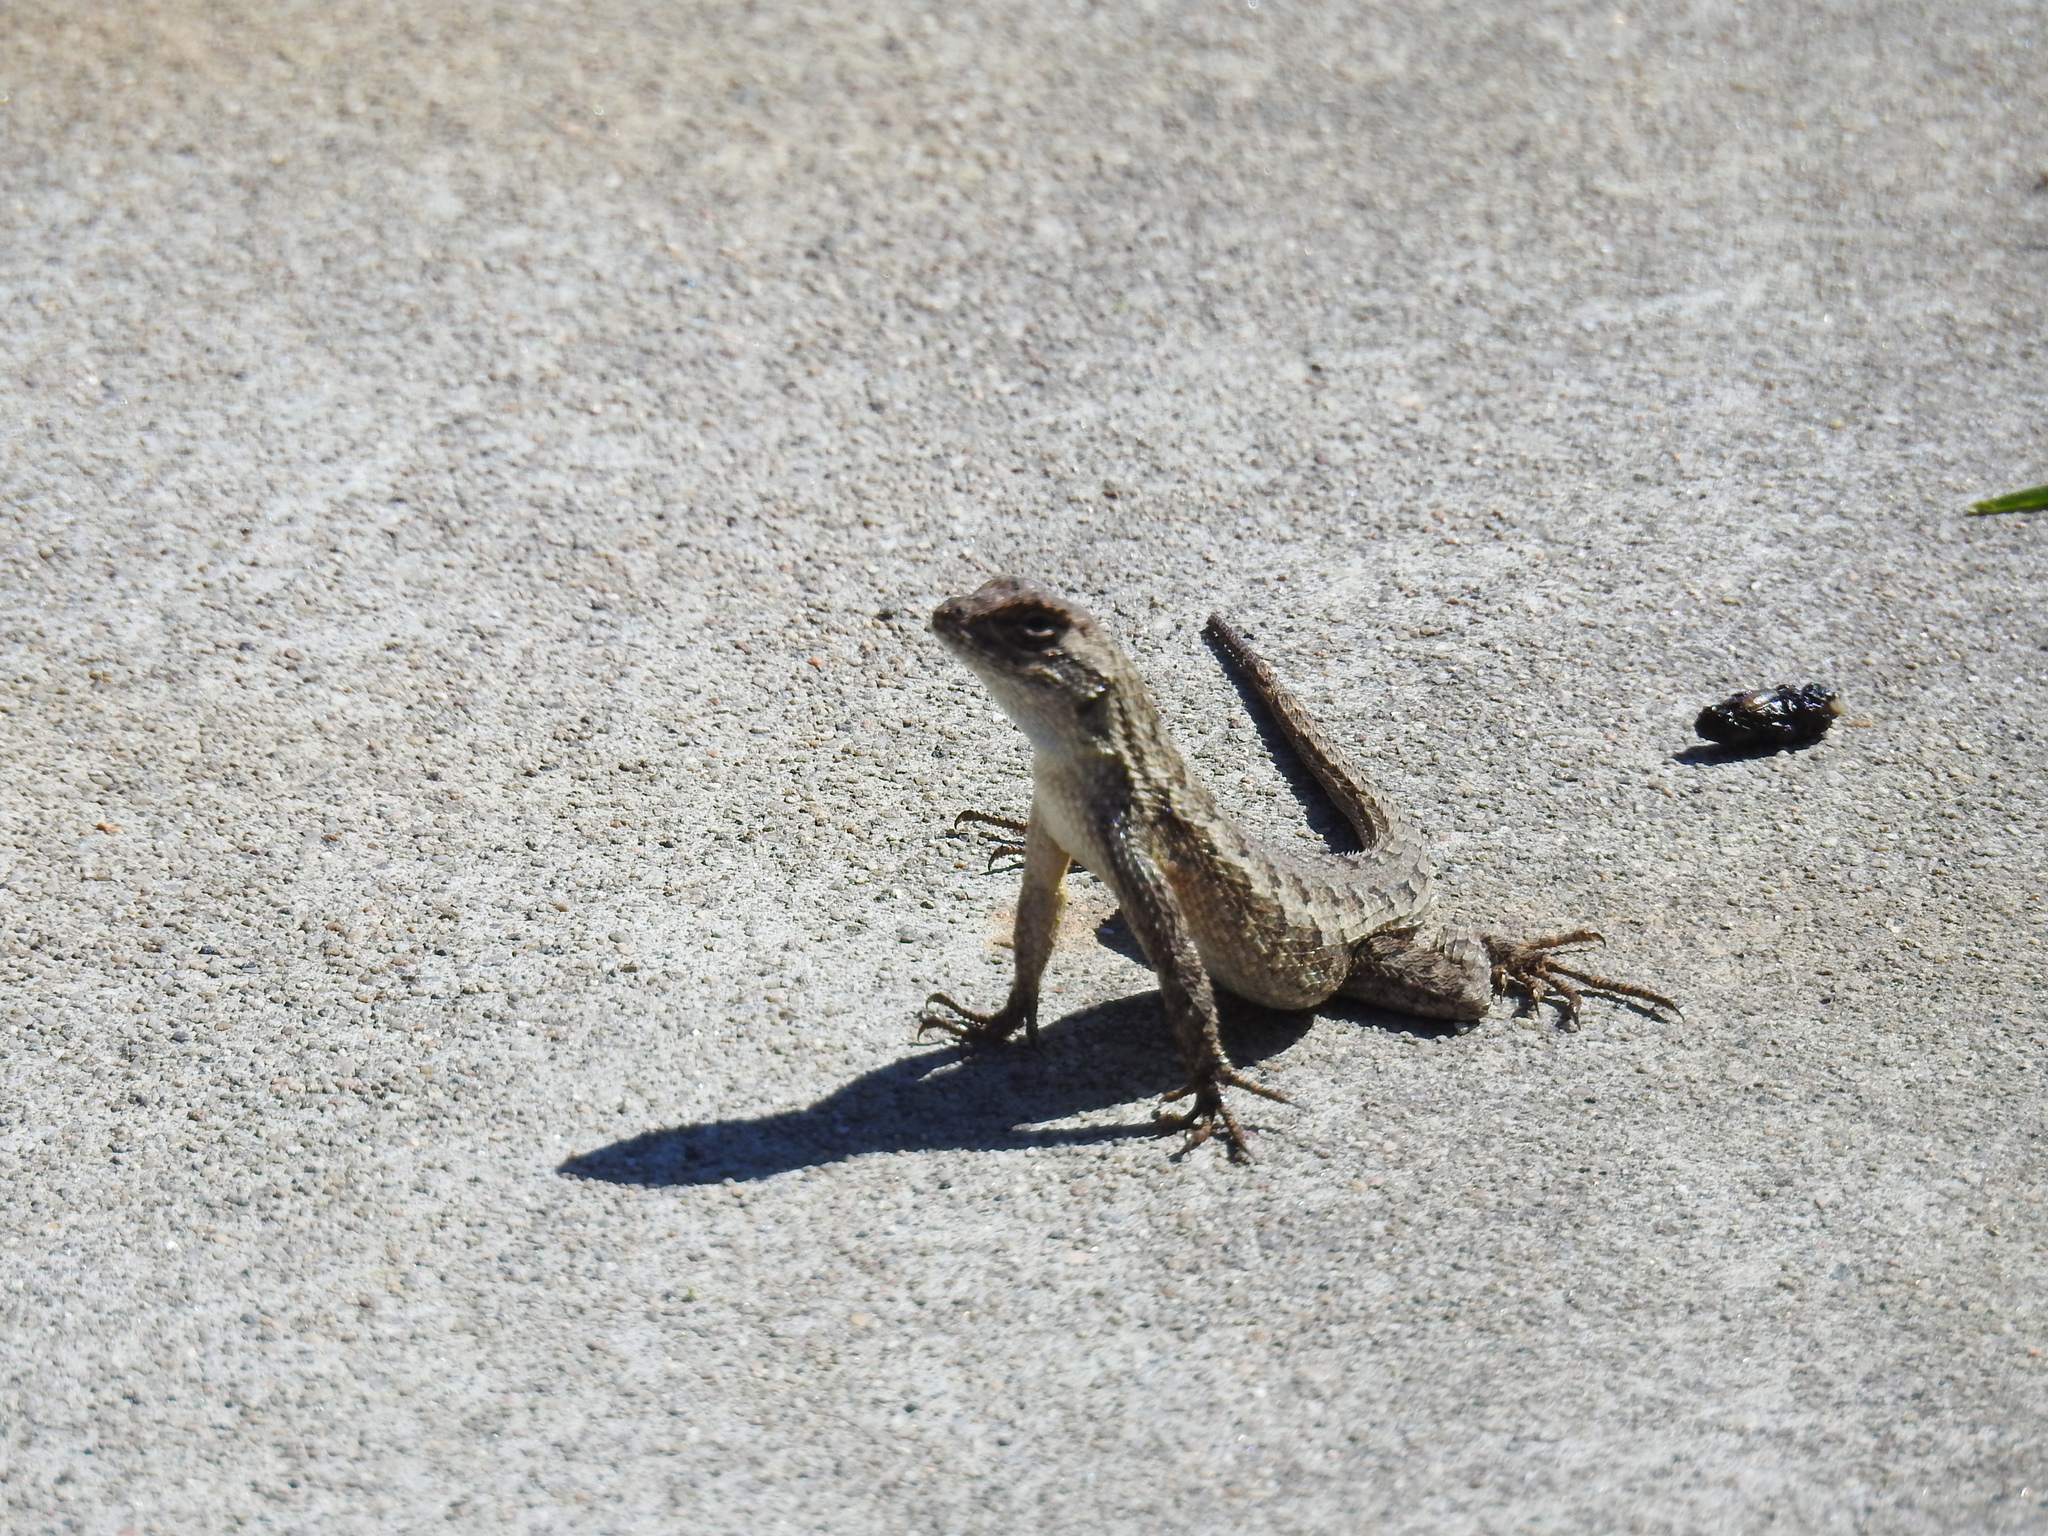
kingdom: Animalia
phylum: Chordata
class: Squamata
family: Phrynosomatidae
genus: Sceloporus
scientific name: Sceloporus occidentalis
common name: Western fence lizard
